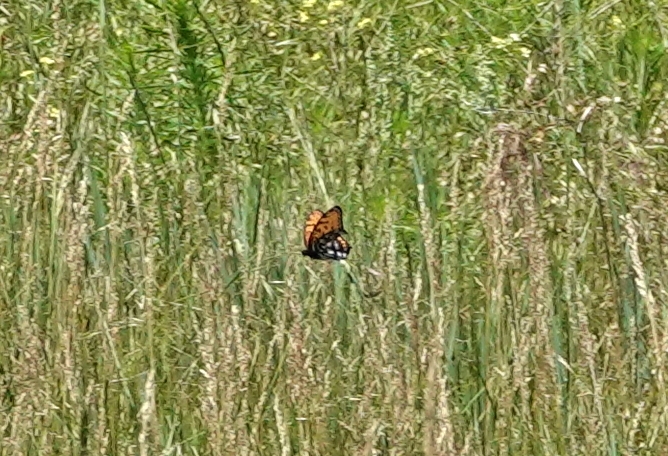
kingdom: Animalia
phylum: Arthropoda
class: Insecta
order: Lepidoptera
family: Nymphalidae
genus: Speyeria
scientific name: Speyeria idalia
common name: Regal fritillary
